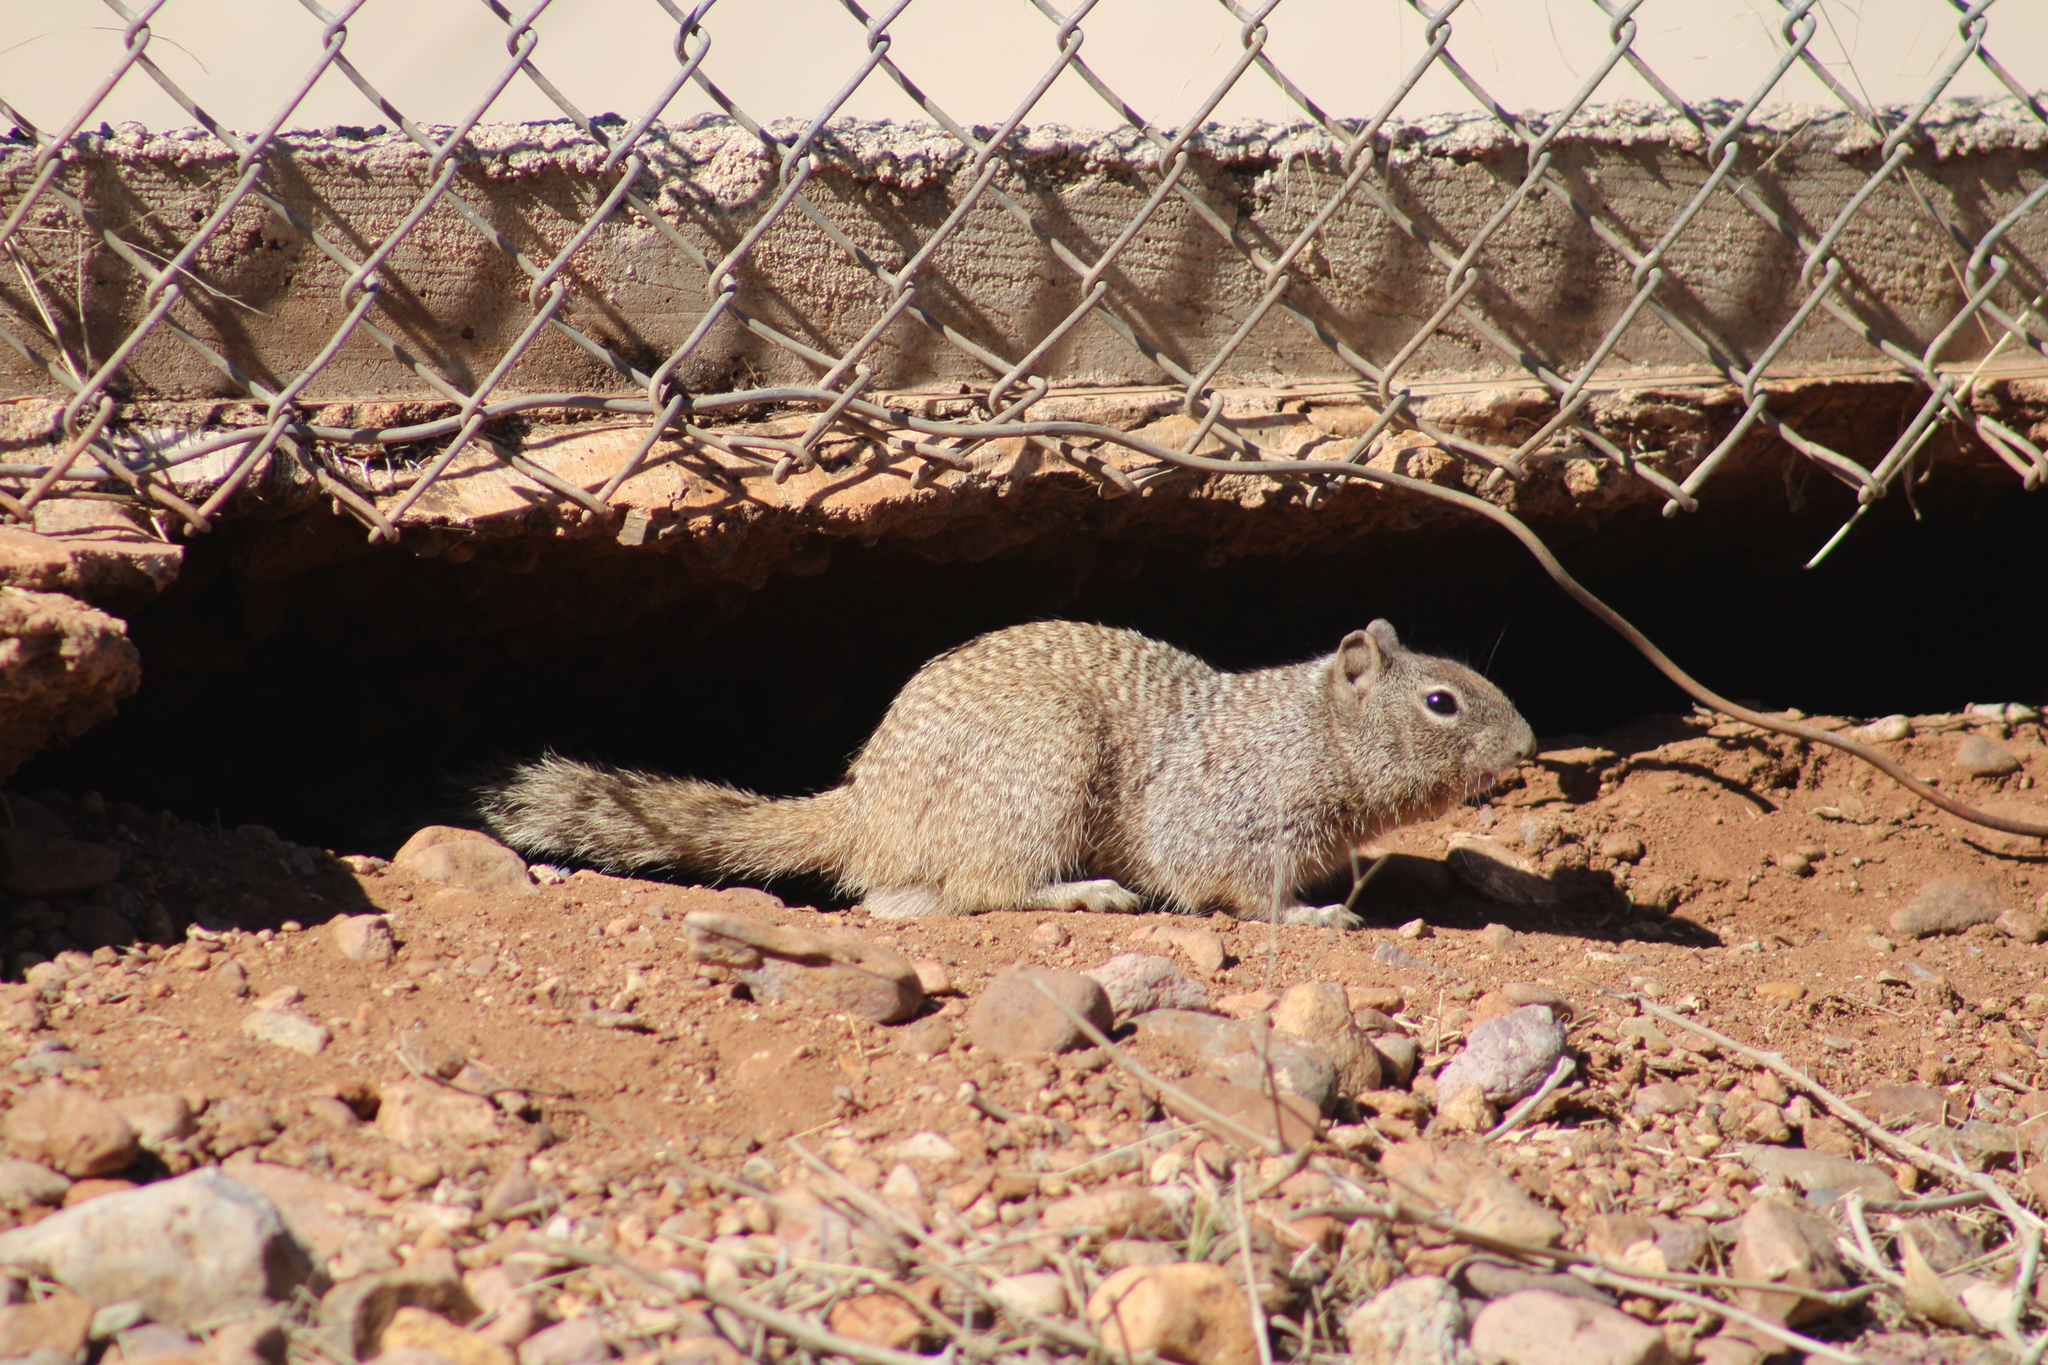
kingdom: Animalia
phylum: Chordata
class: Mammalia
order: Rodentia
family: Sciuridae
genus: Otospermophilus
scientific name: Otospermophilus variegatus
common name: Rock squirrel
